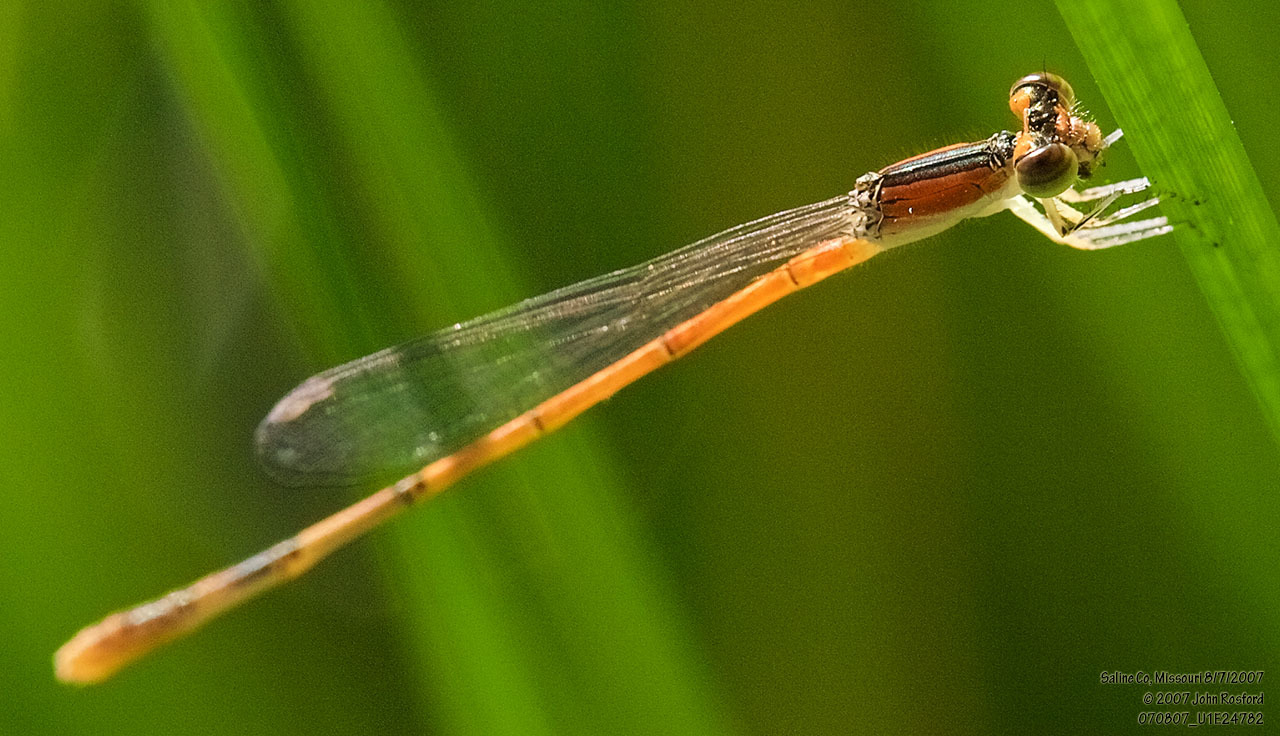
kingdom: Animalia
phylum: Arthropoda
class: Insecta
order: Odonata
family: Coenagrionidae
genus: Ischnura
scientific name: Ischnura hastata
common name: Citrine forktail
